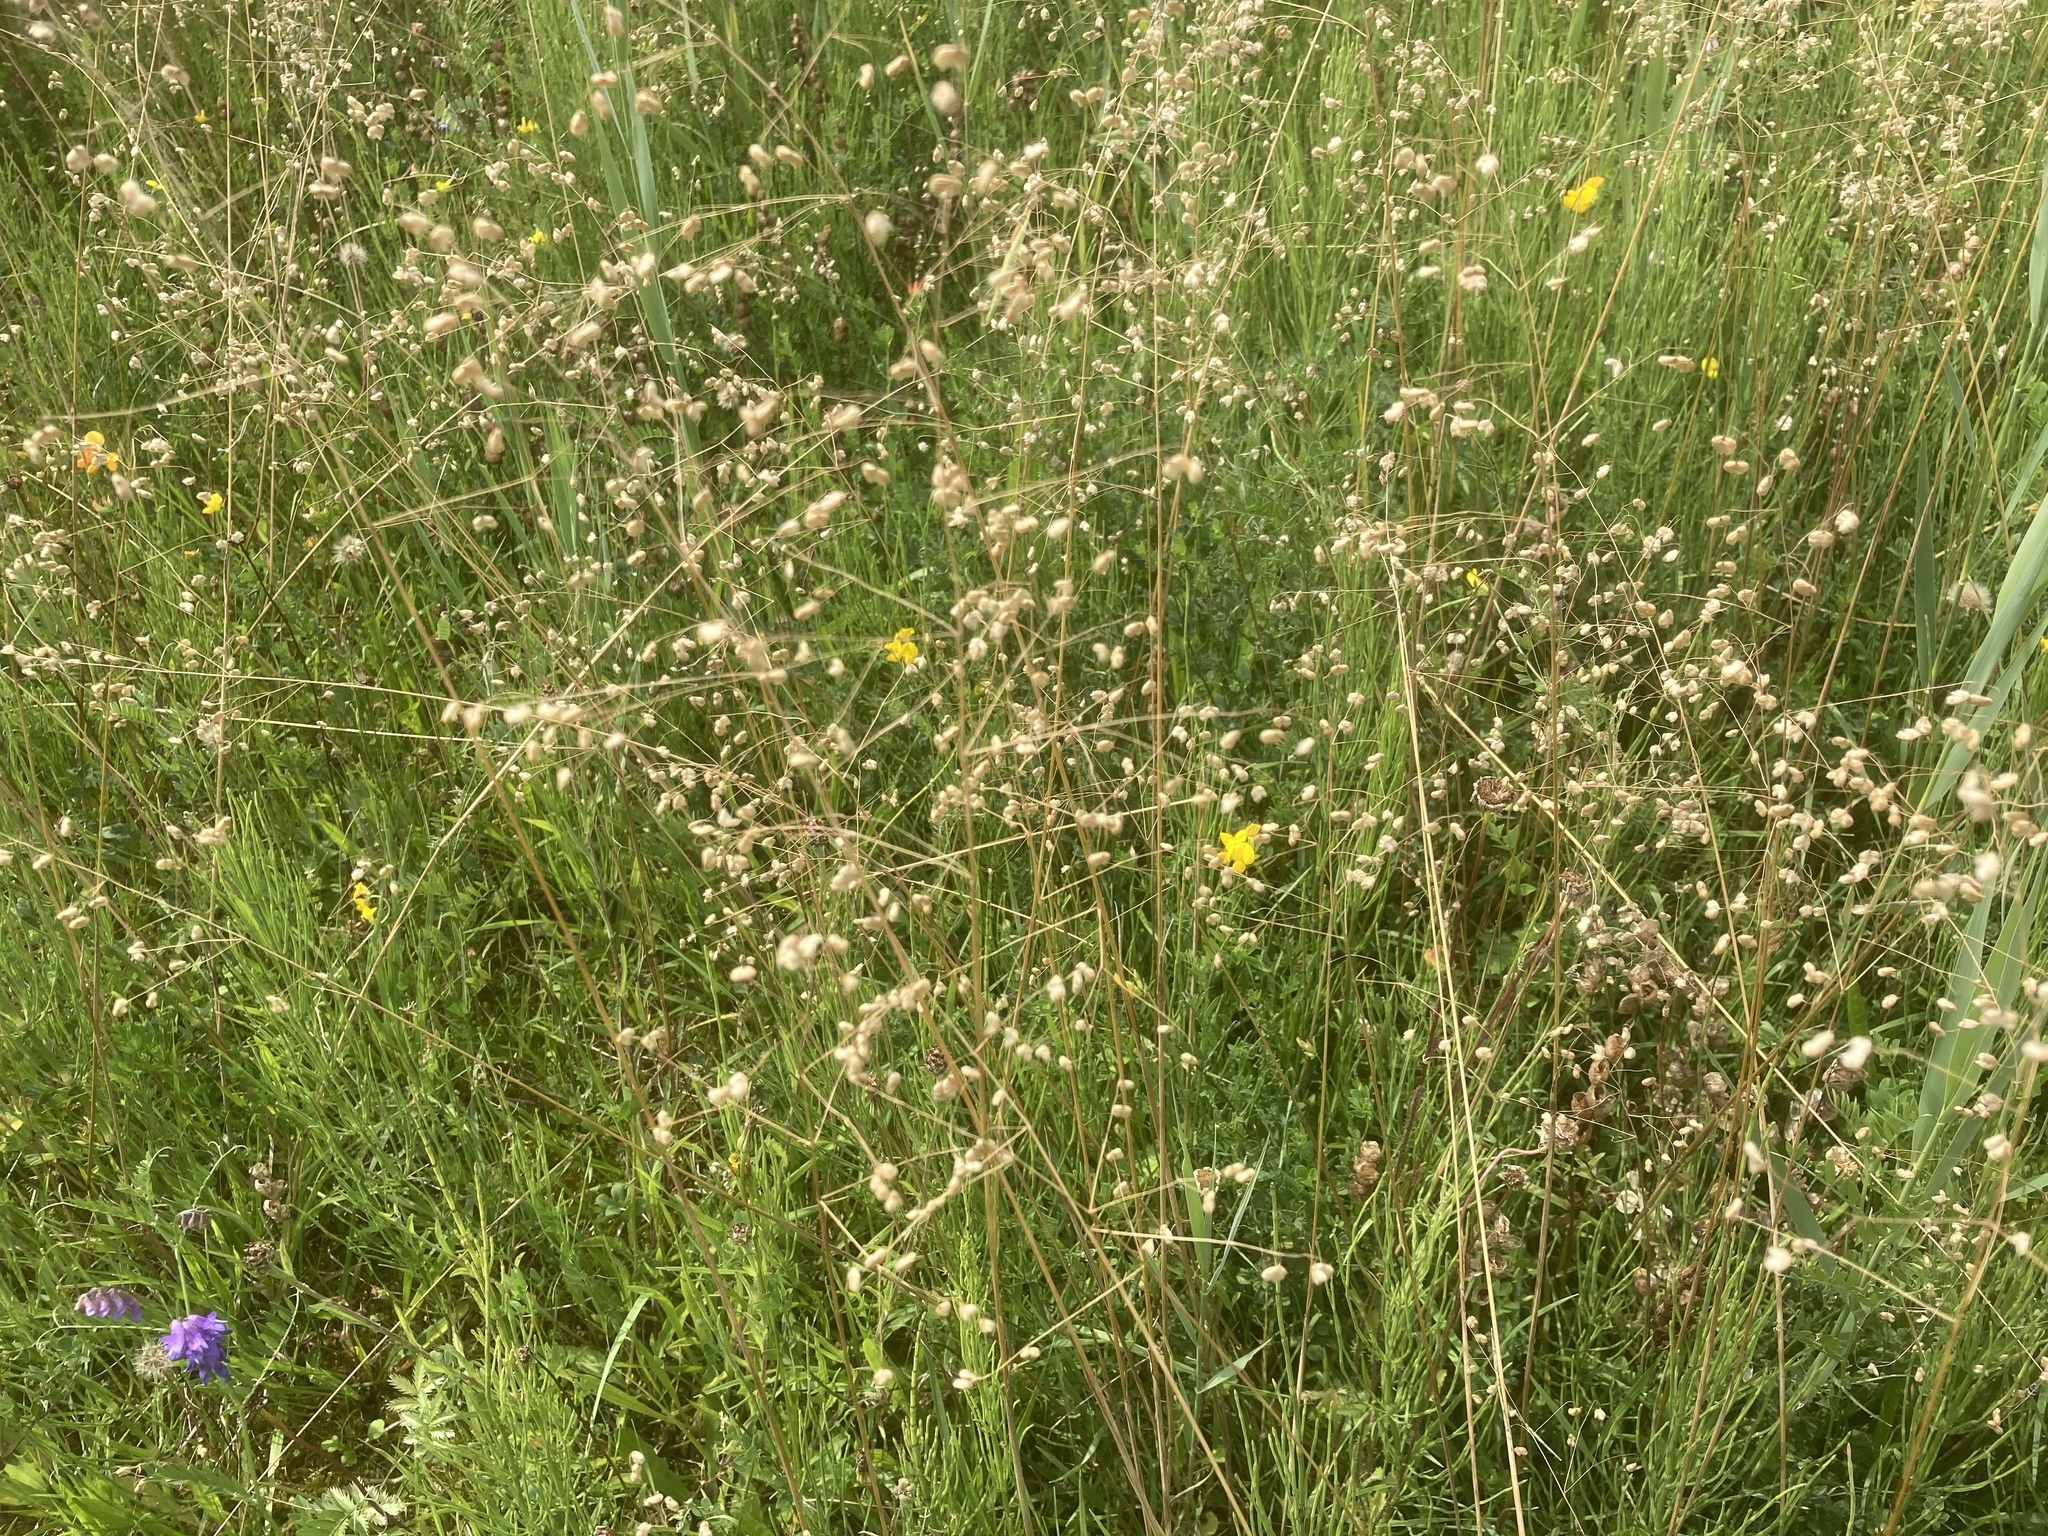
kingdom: Plantae
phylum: Tracheophyta
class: Liliopsida
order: Poales
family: Poaceae
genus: Briza
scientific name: Briza media
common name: Quaking grass
